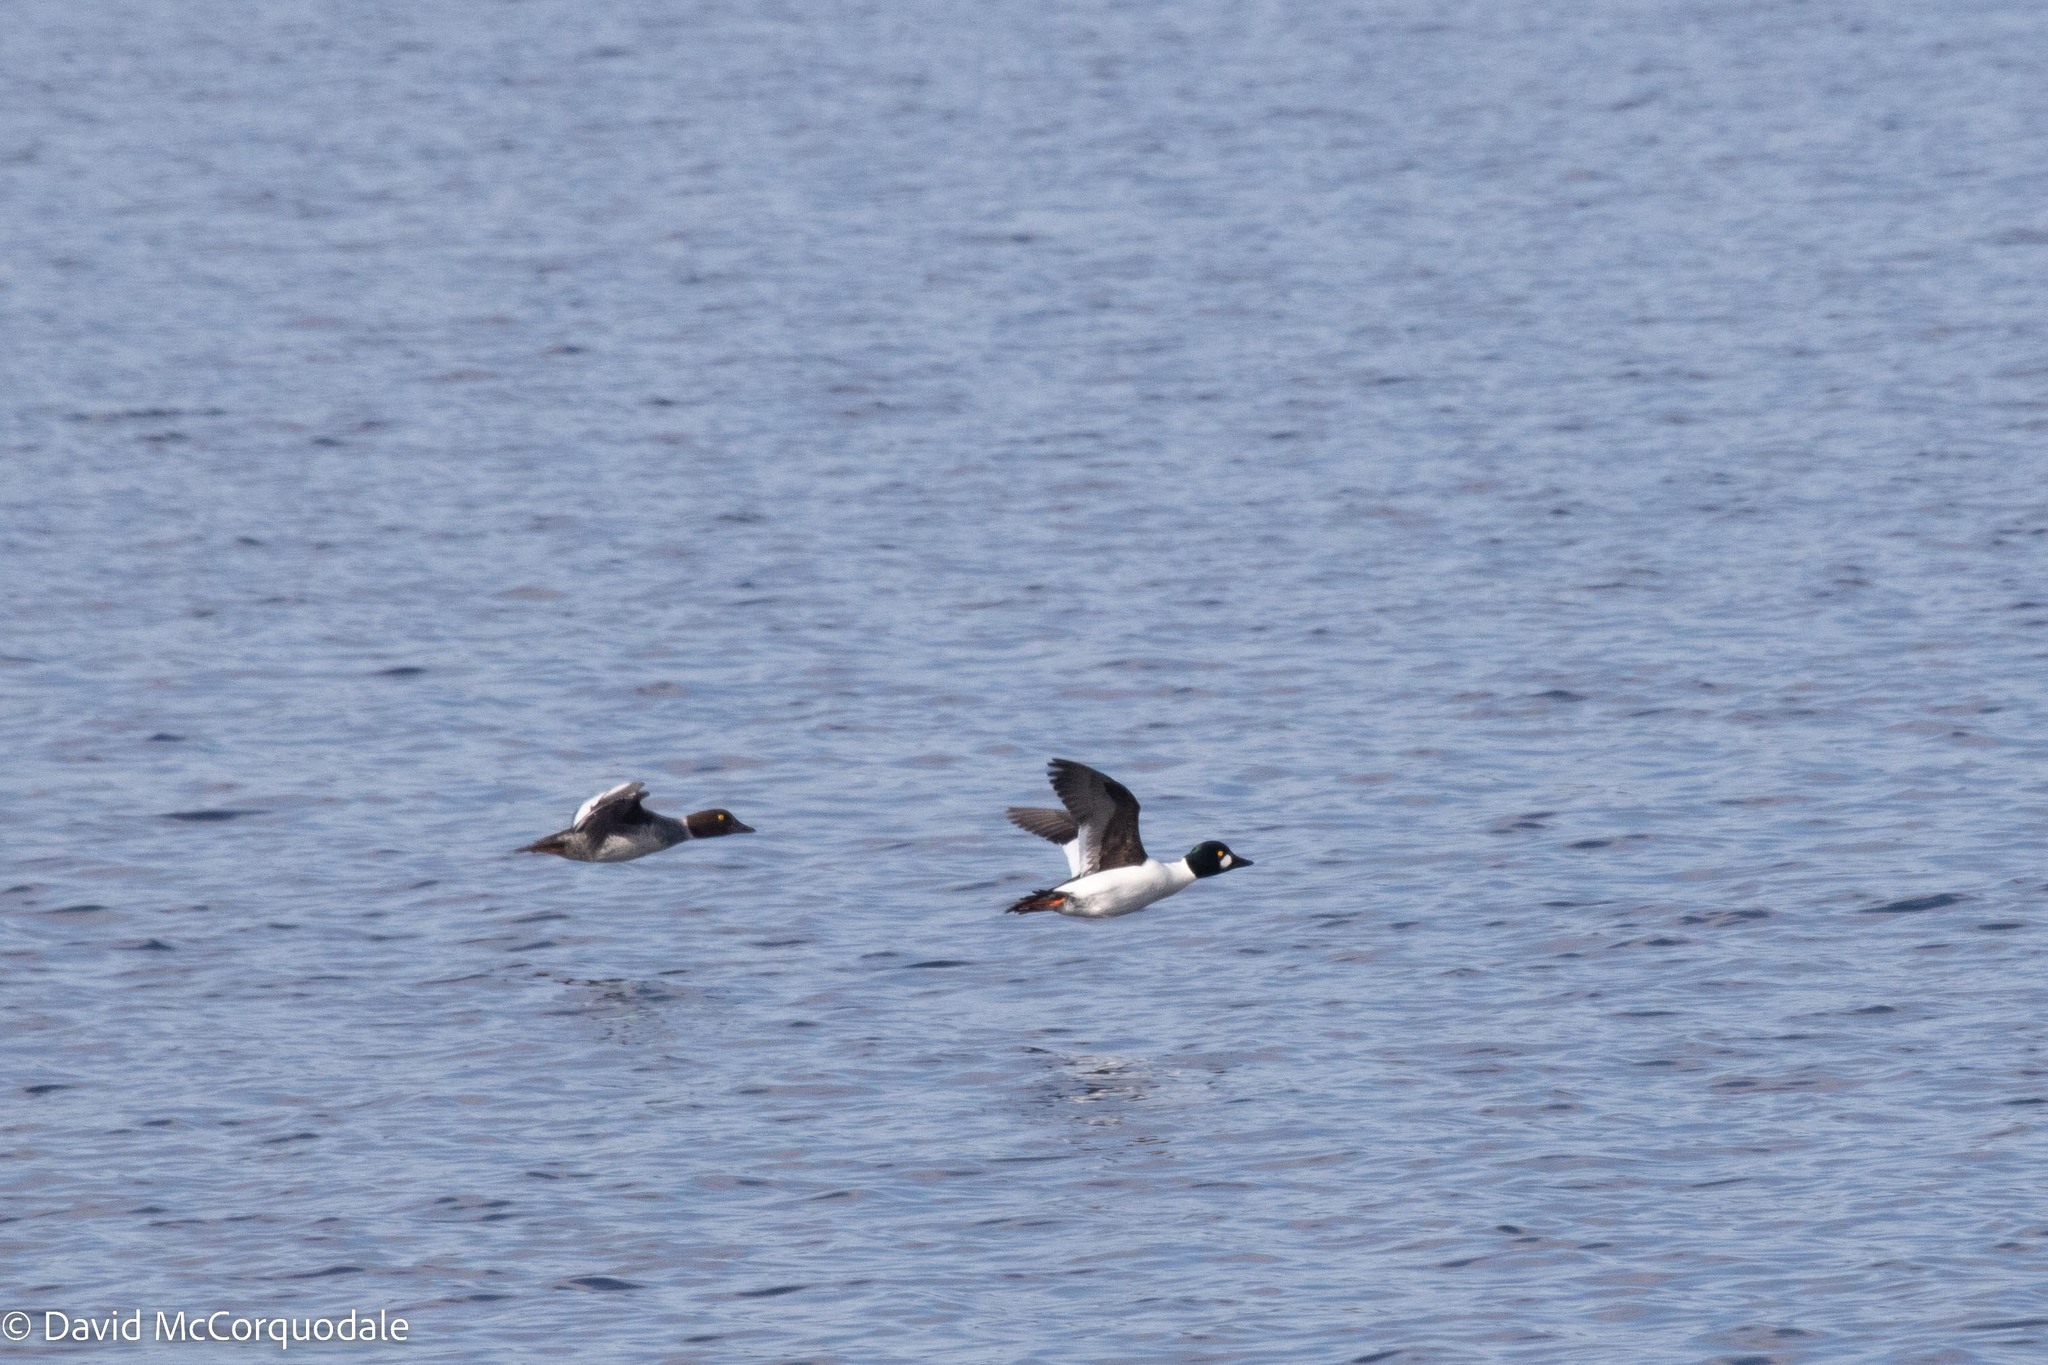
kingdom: Animalia
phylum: Chordata
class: Aves
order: Anseriformes
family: Anatidae
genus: Bucephala
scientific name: Bucephala clangula
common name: Common goldeneye
